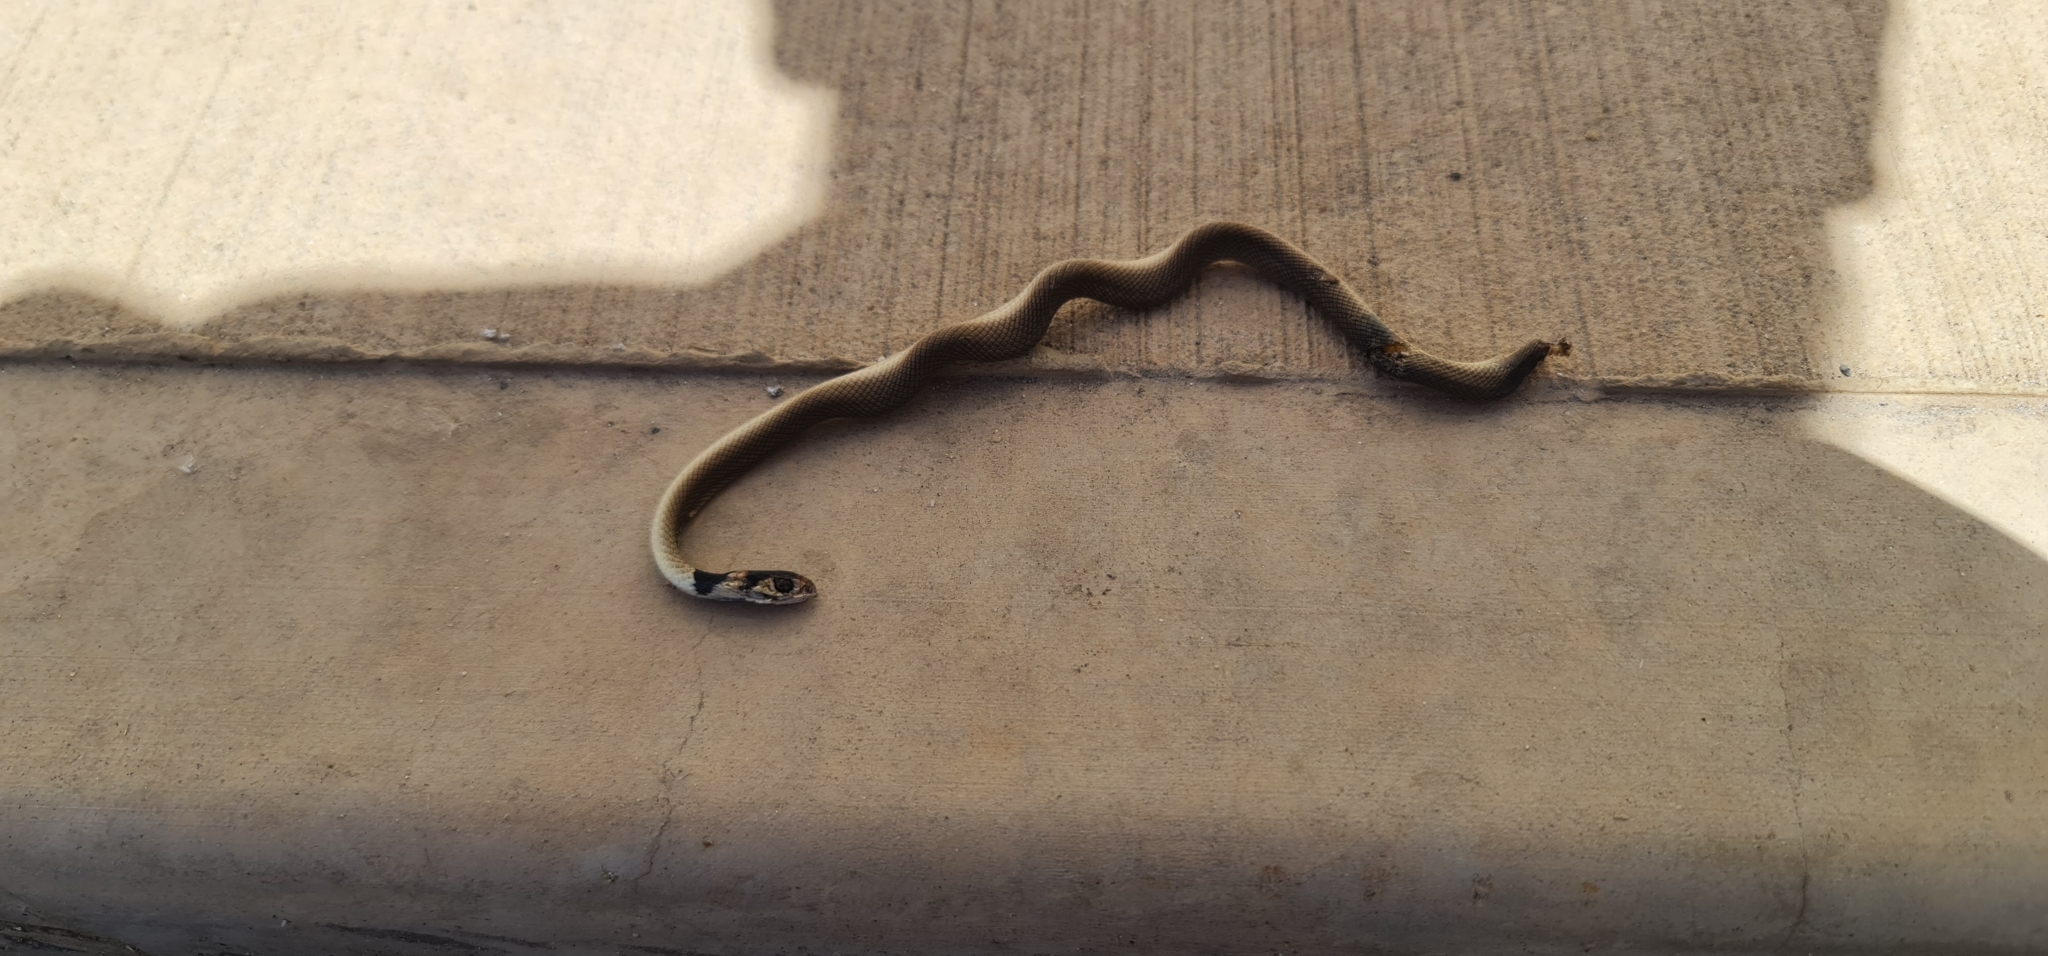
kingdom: Animalia
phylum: Chordata
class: Squamata
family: Elapidae
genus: Pseudonaja
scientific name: Pseudonaja textilis
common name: Eastern brown snake
